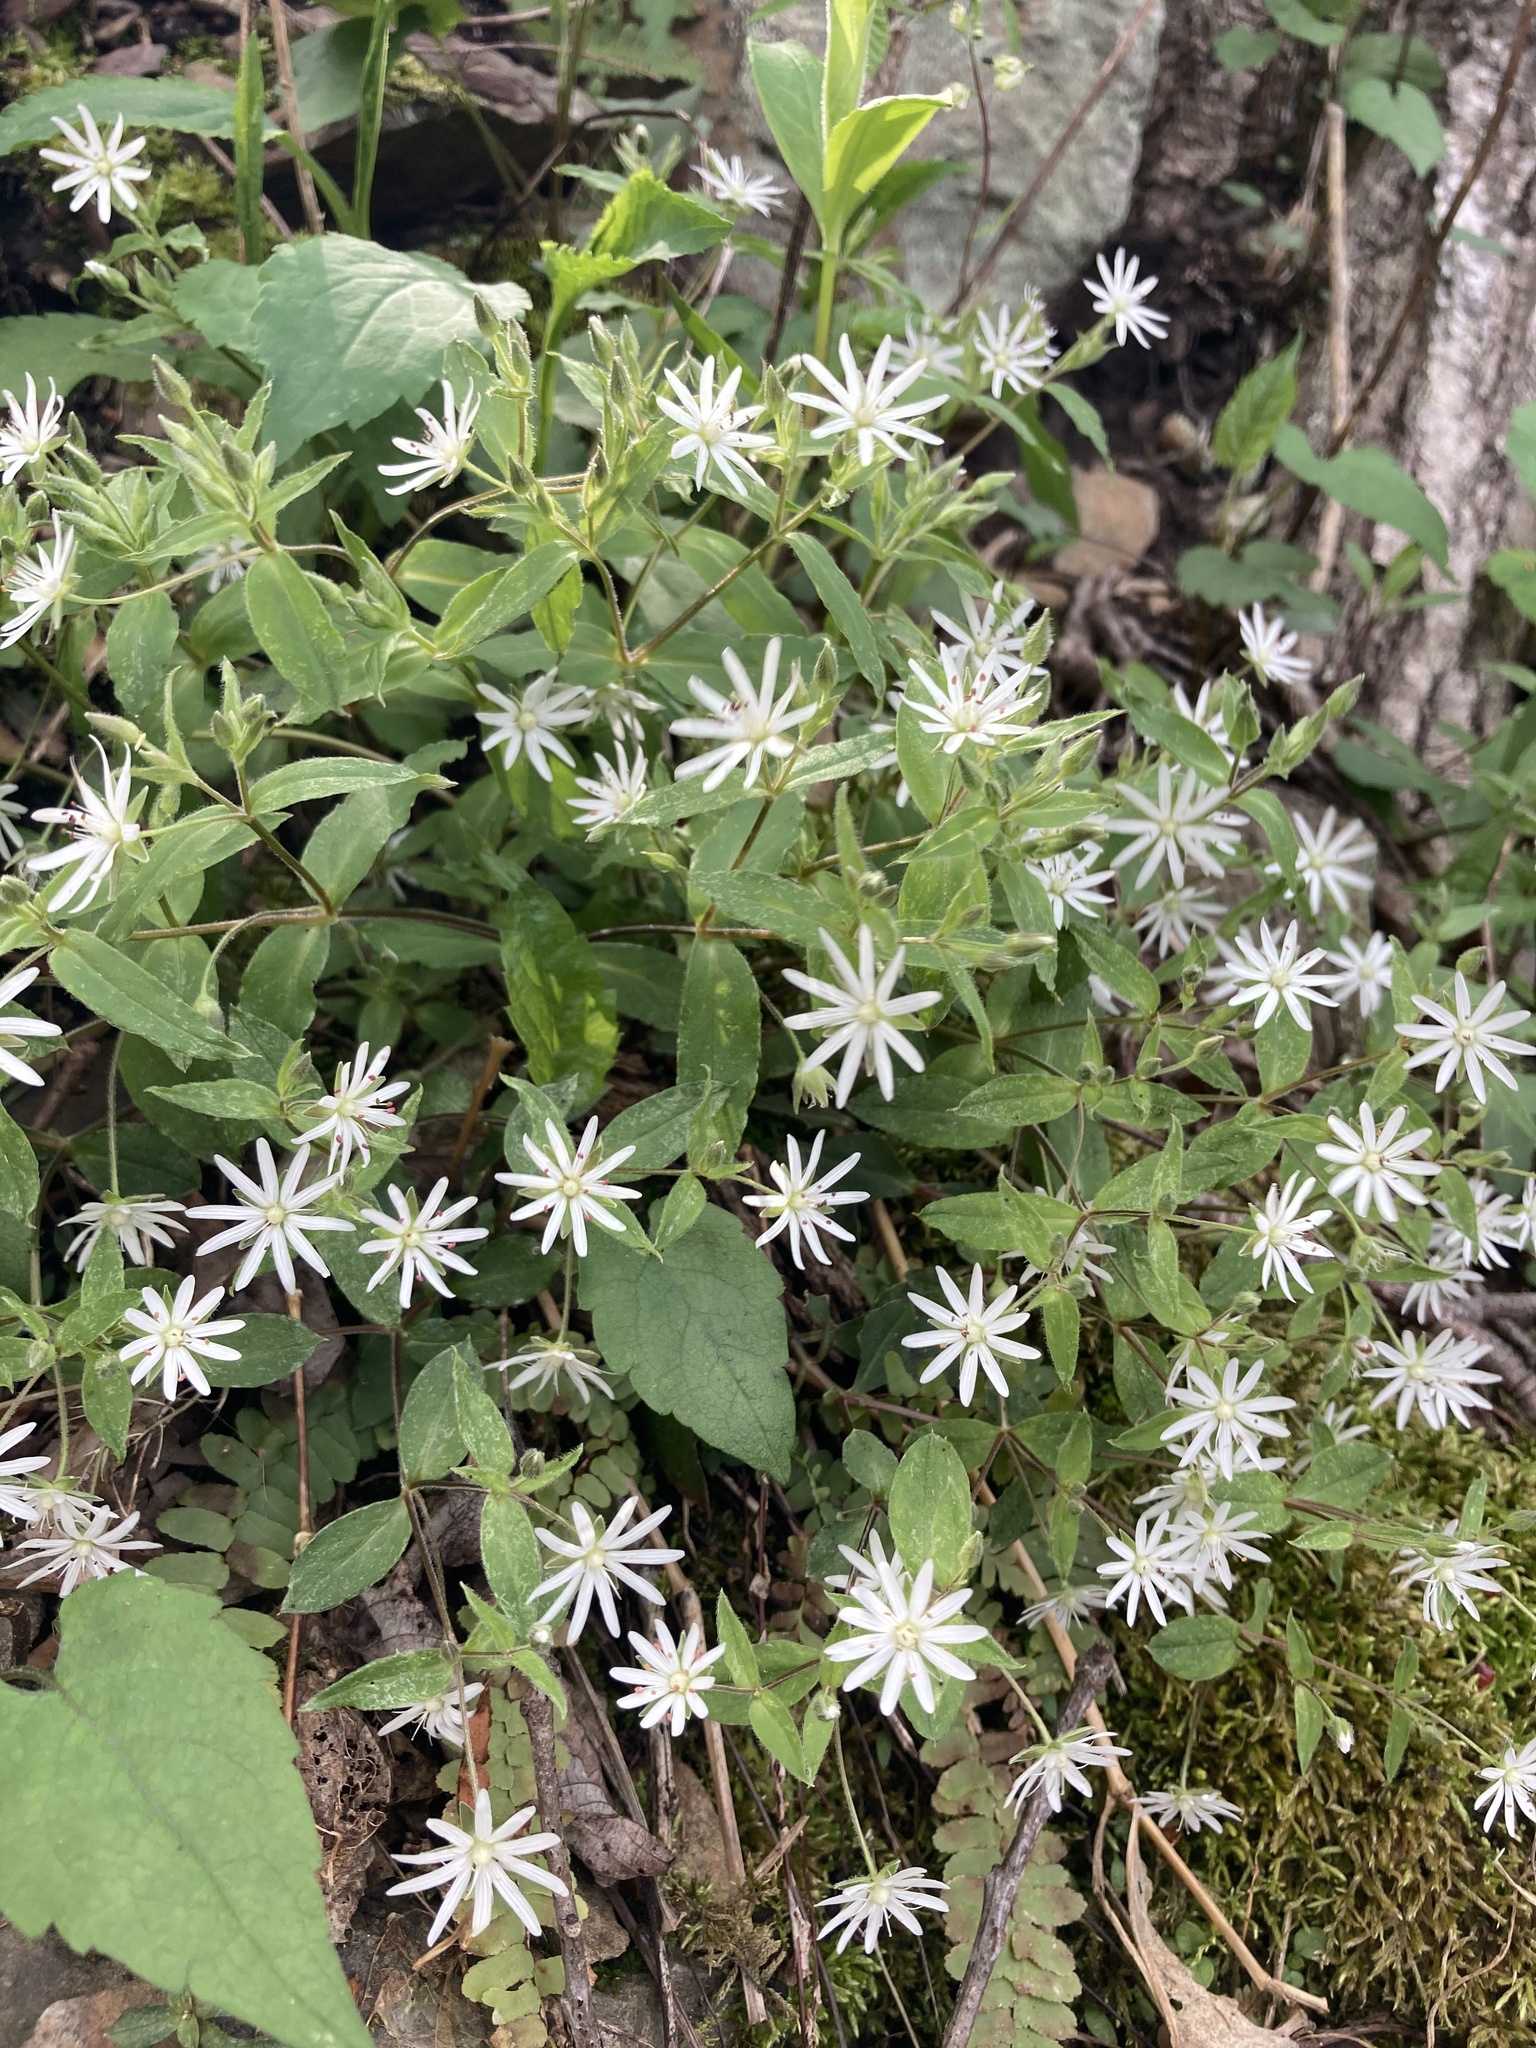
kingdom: Plantae
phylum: Tracheophyta
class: Magnoliopsida
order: Caryophyllales
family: Caryophyllaceae
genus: Stellaria
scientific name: Stellaria pubera
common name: Star chickweed
